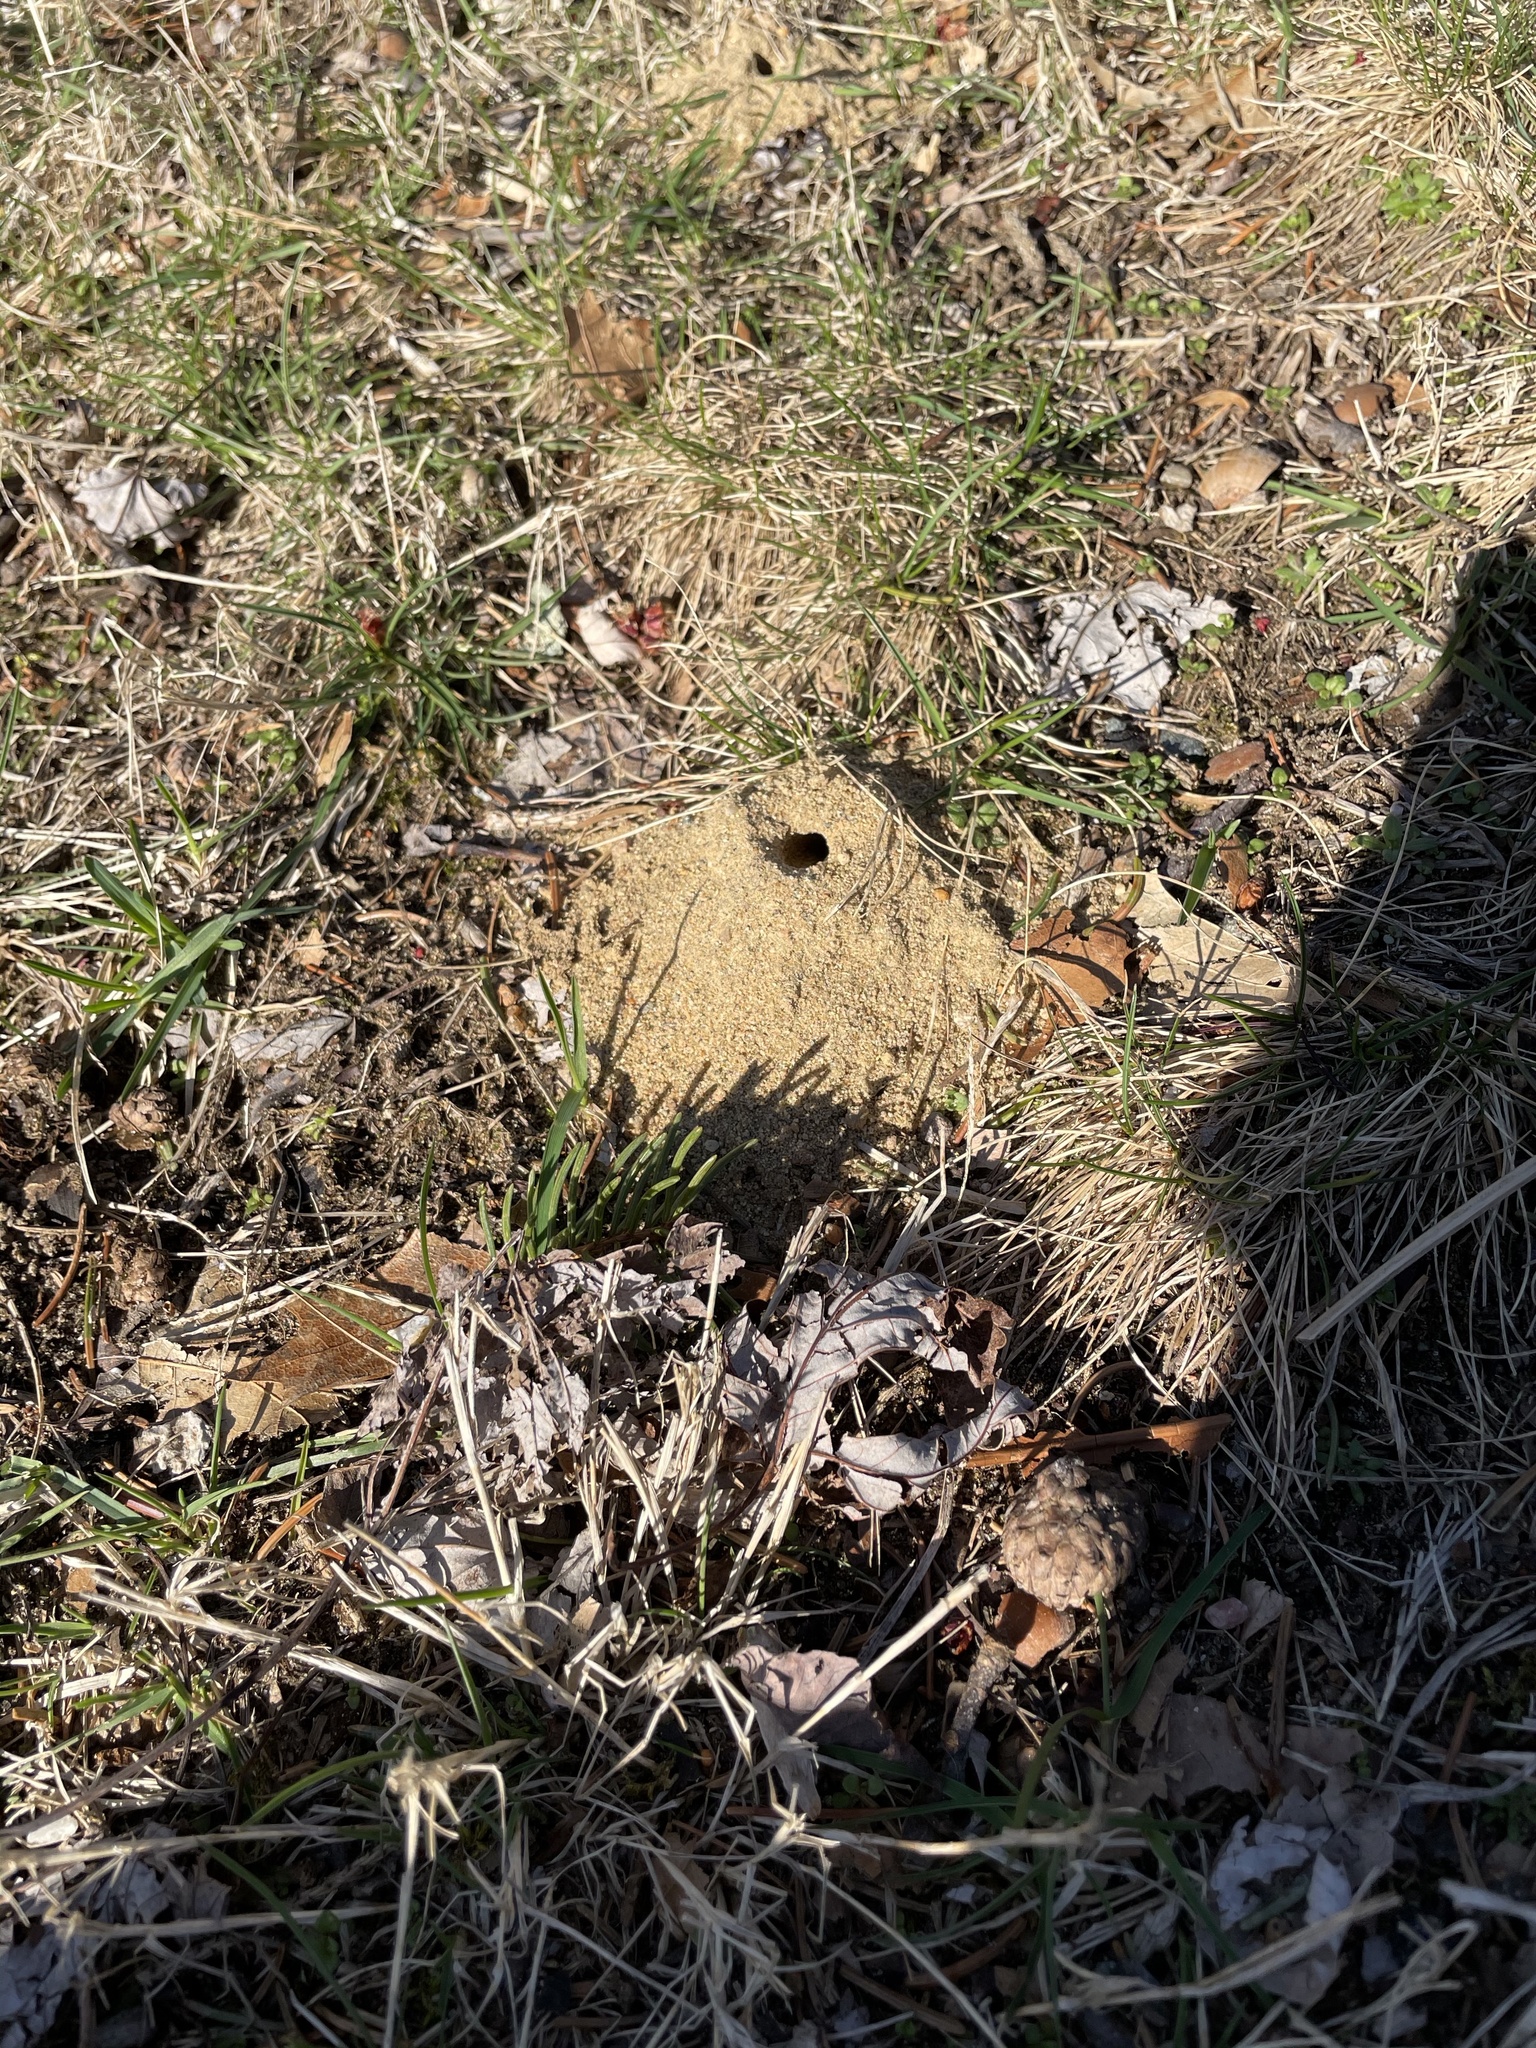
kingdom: Animalia
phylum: Arthropoda
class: Insecta
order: Hymenoptera
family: Colletidae
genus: Colletes
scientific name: Colletes inaequalis
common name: Unequal cellophane bee
